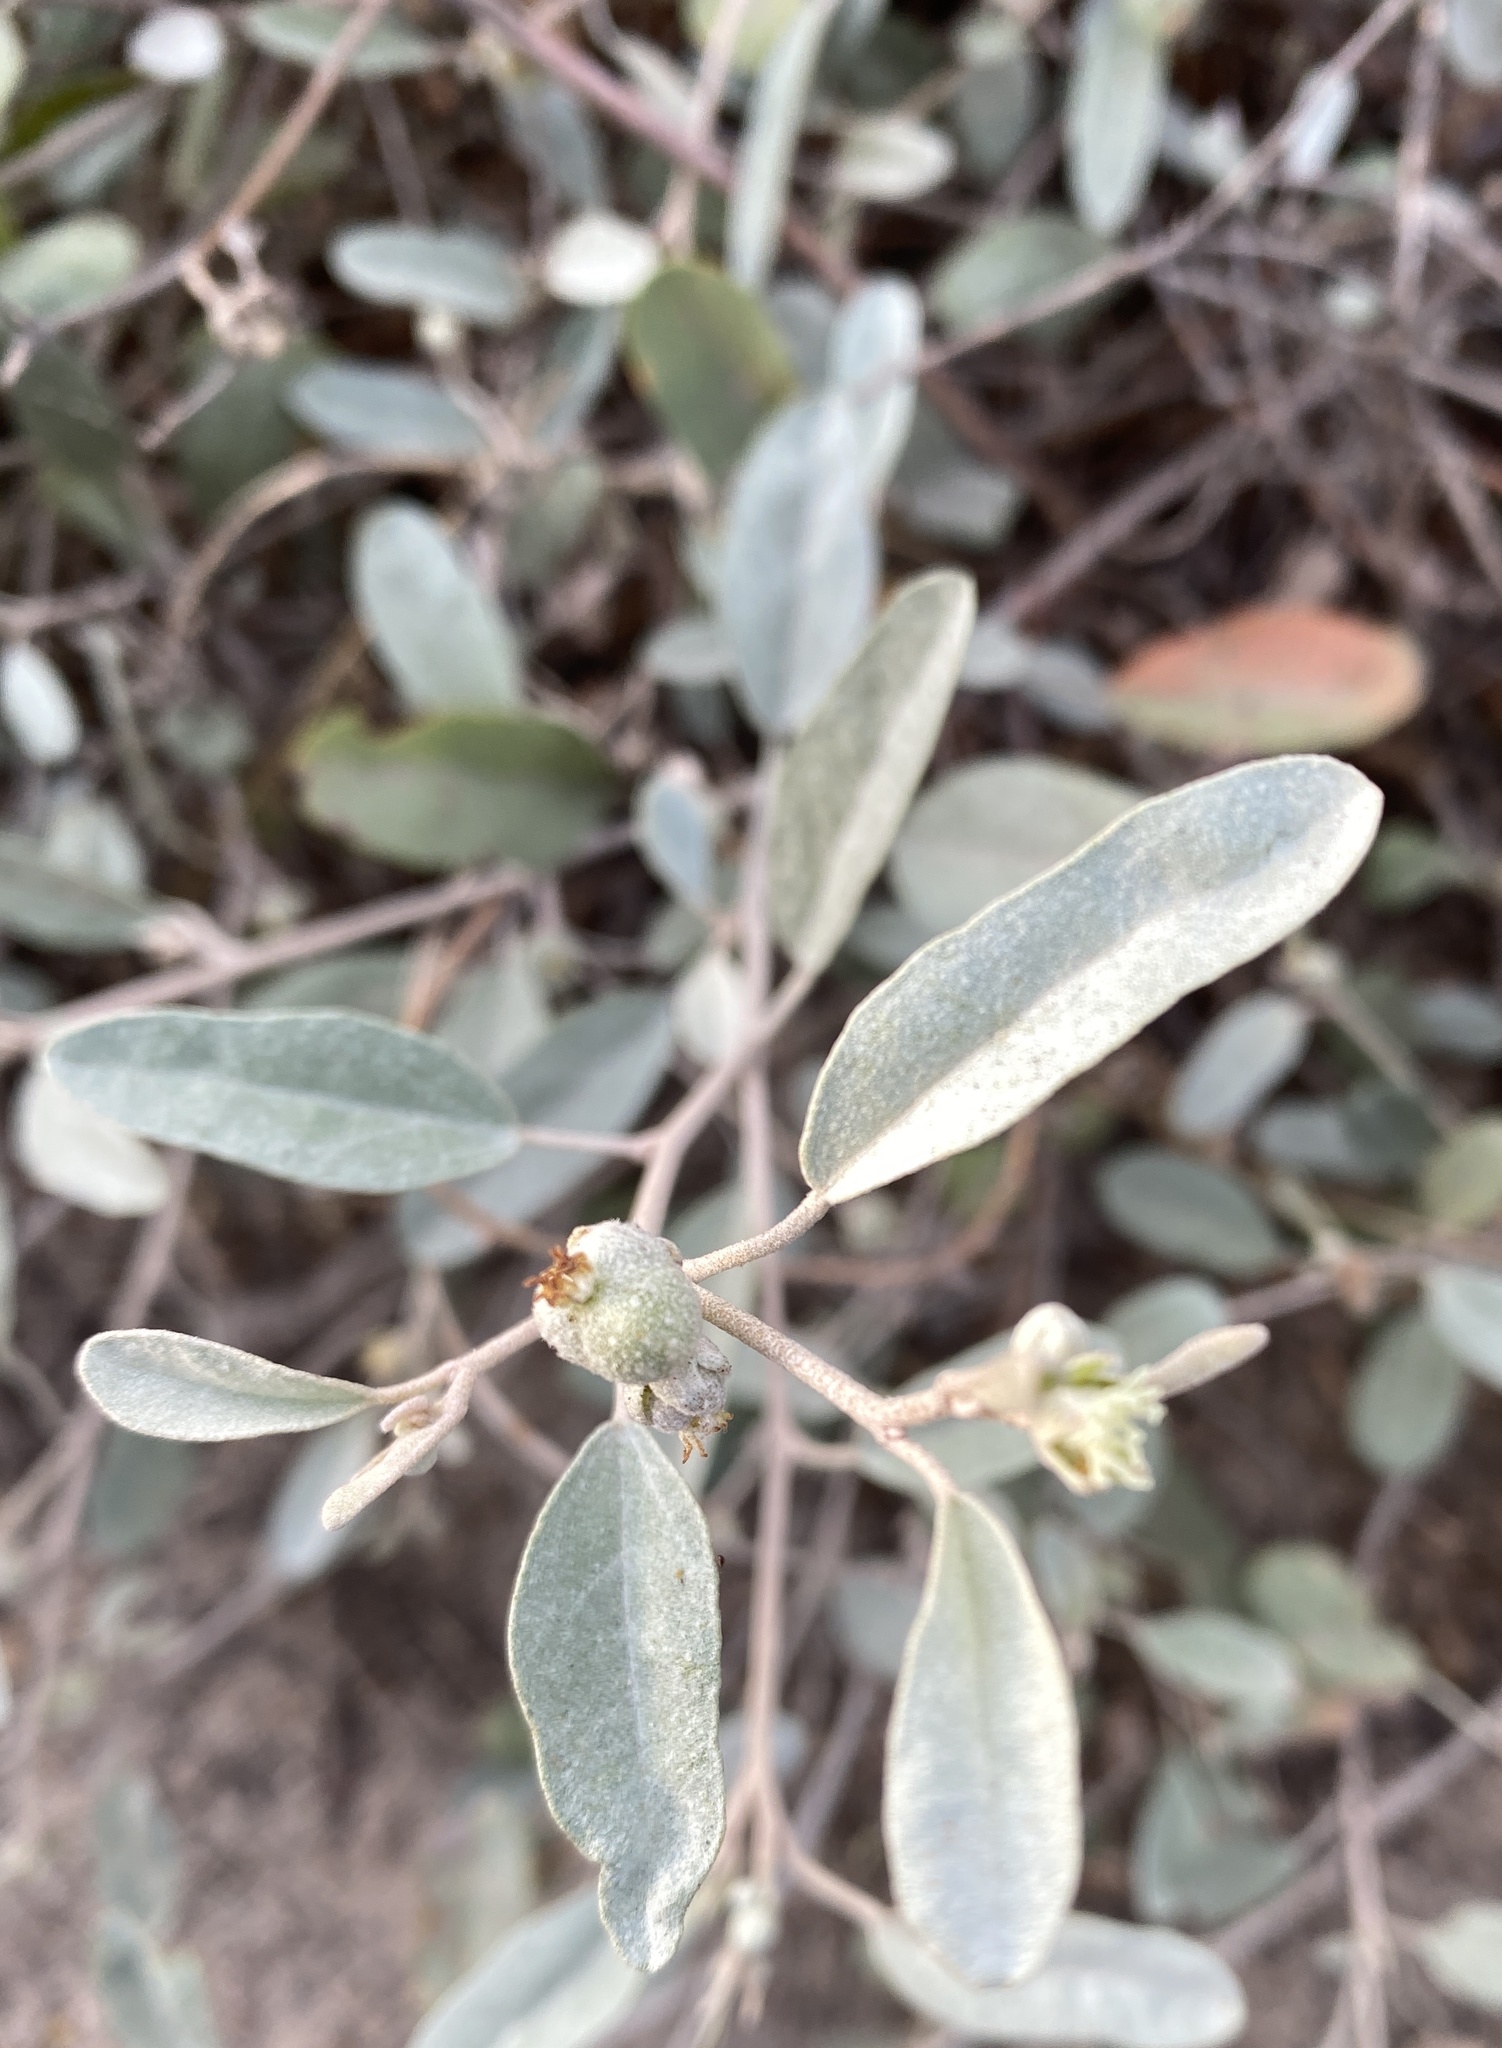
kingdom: Plantae
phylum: Tracheophyta
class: Magnoliopsida
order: Malpighiales
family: Euphorbiaceae
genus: Croton
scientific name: Croton californicus
